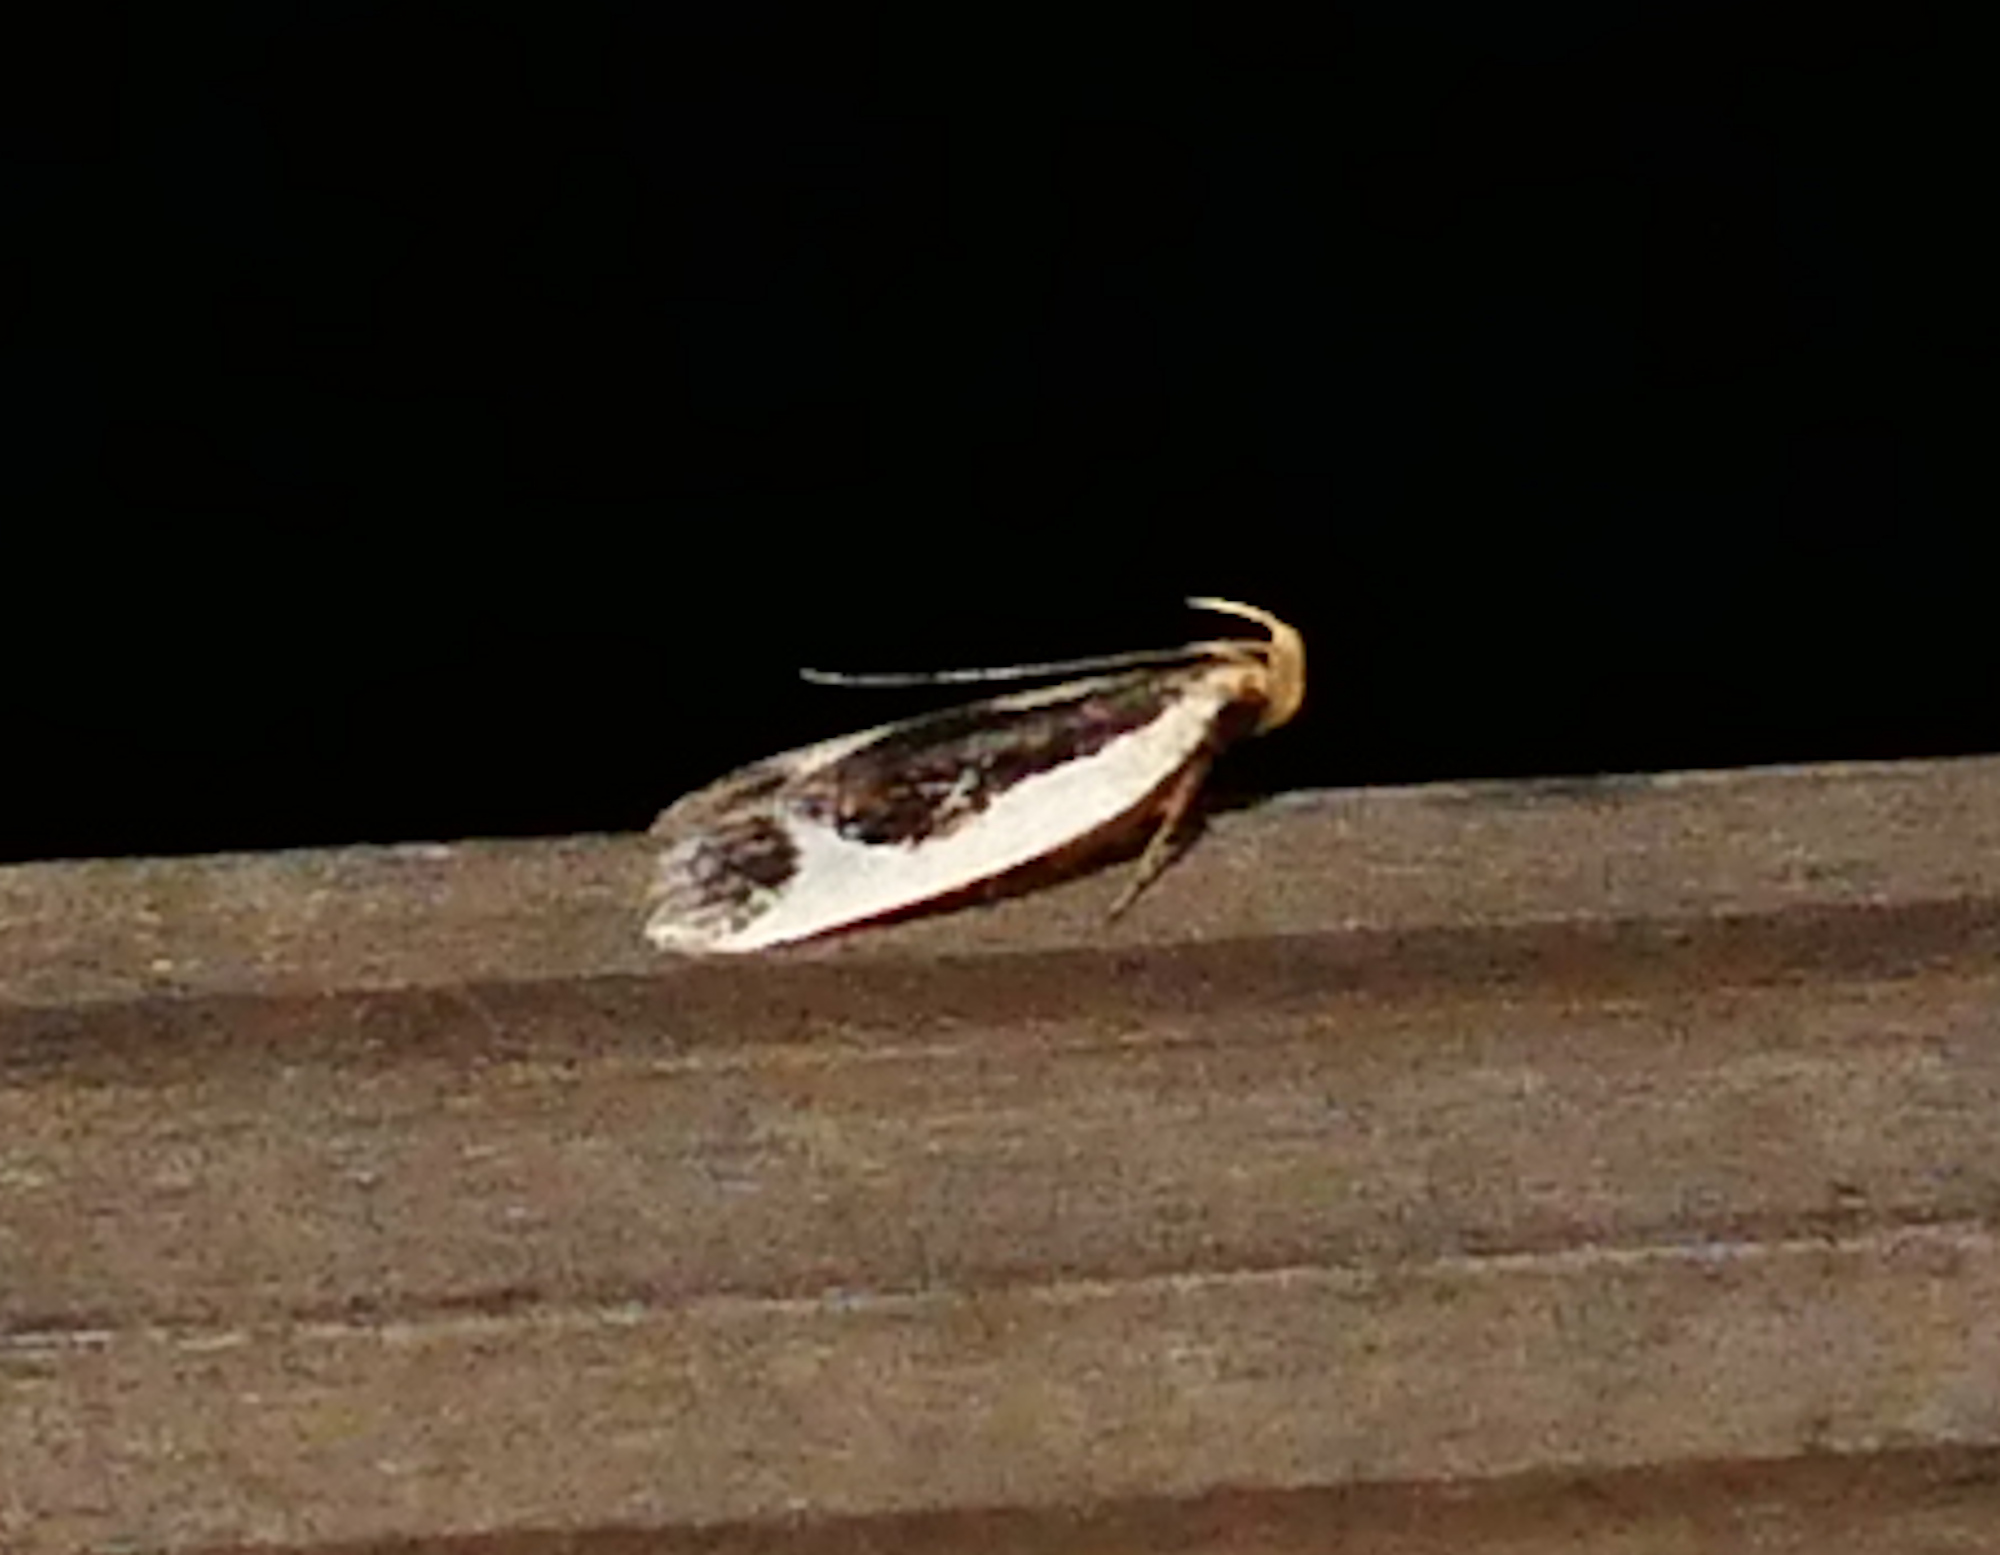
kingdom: Animalia
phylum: Arthropoda
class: Insecta
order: Lepidoptera
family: Gelechiidae
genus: Dichomeris
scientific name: Dichomeris flavocostella
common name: Cream-edged dichomeris moth
